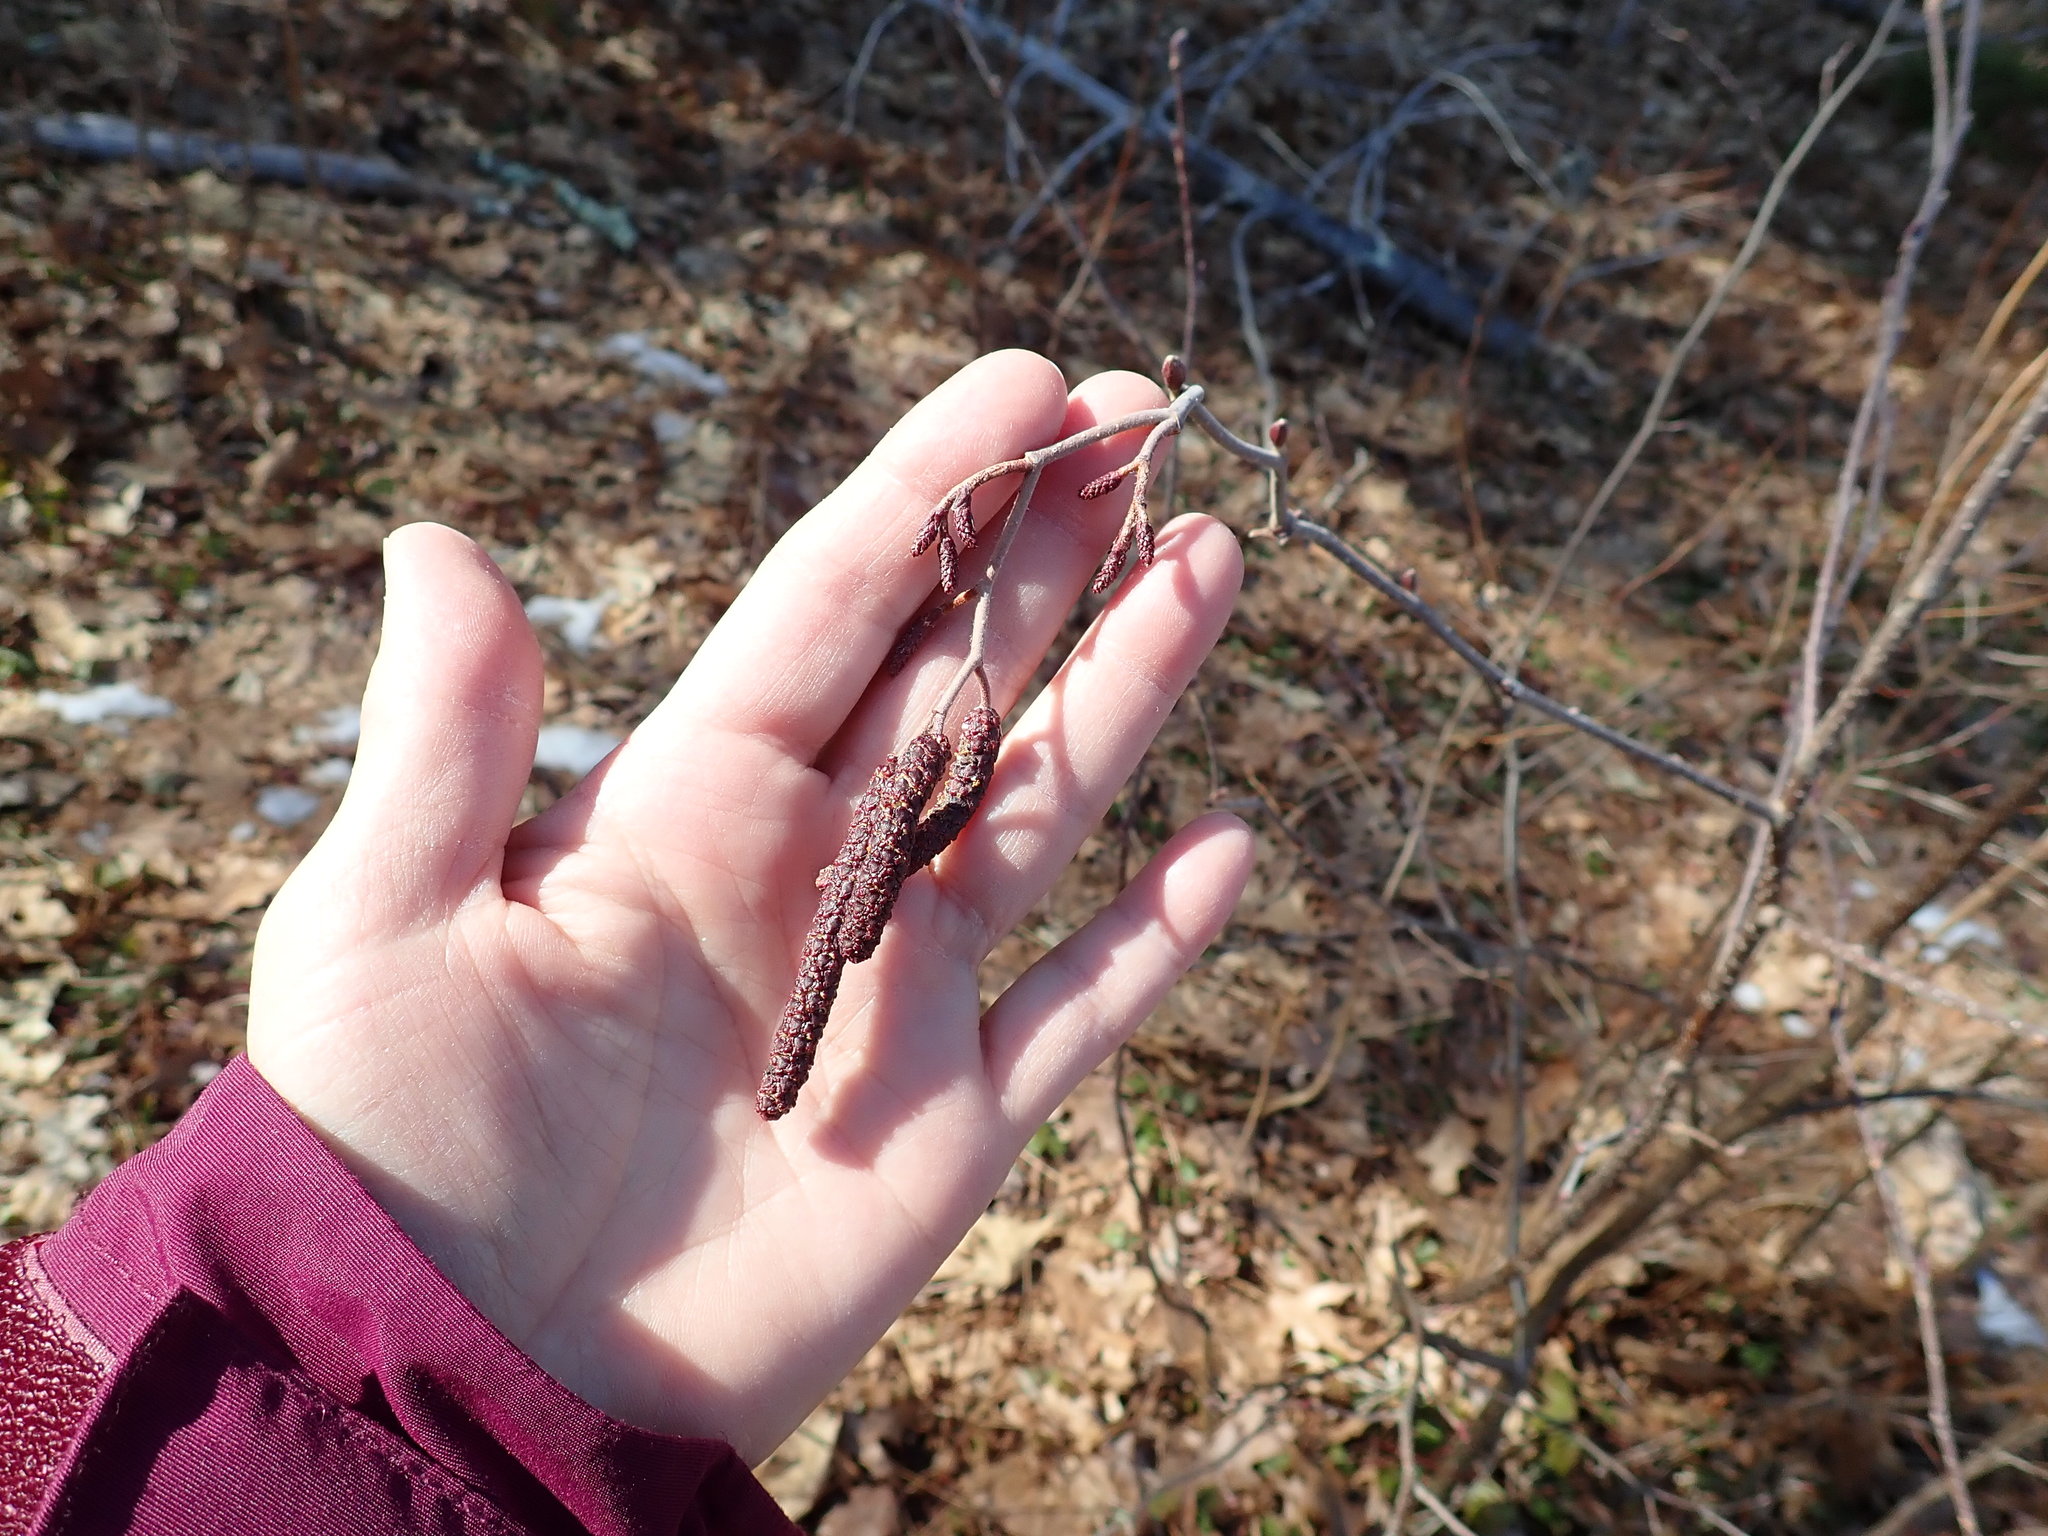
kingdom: Plantae
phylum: Tracheophyta
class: Magnoliopsida
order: Fagales
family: Betulaceae
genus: Alnus
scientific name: Alnus incana
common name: Grey alder
